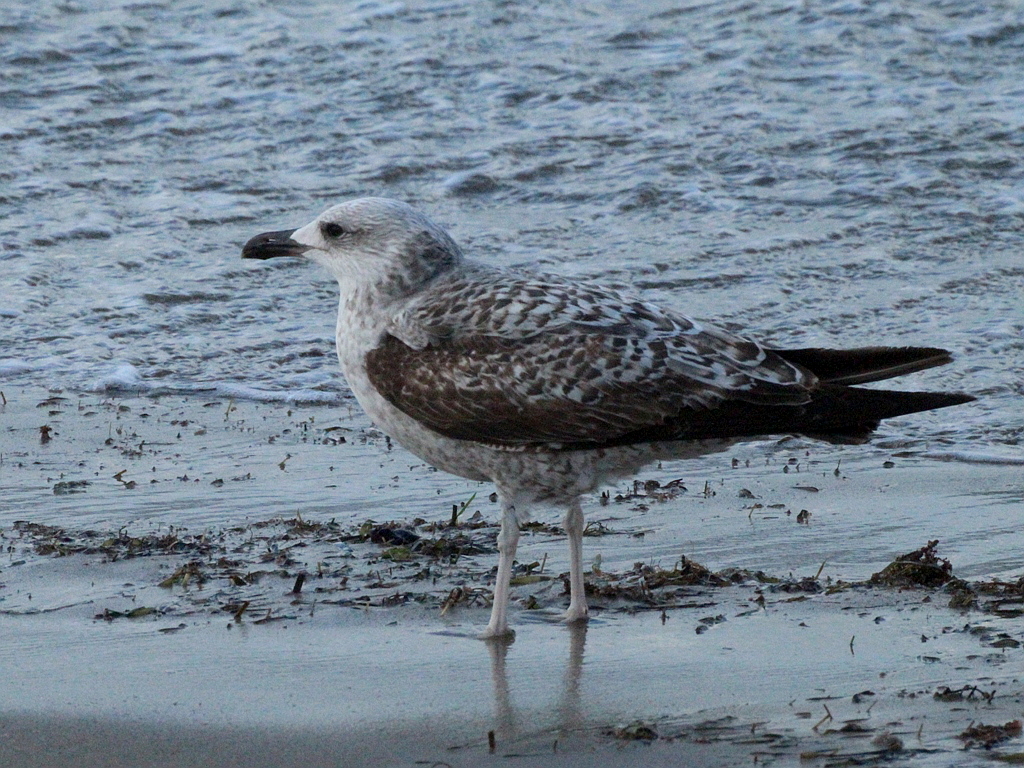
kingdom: Animalia
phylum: Chordata
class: Aves
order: Charadriiformes
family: Laridae
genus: Larus
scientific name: Larus michahellis
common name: Yellow-legged gull
